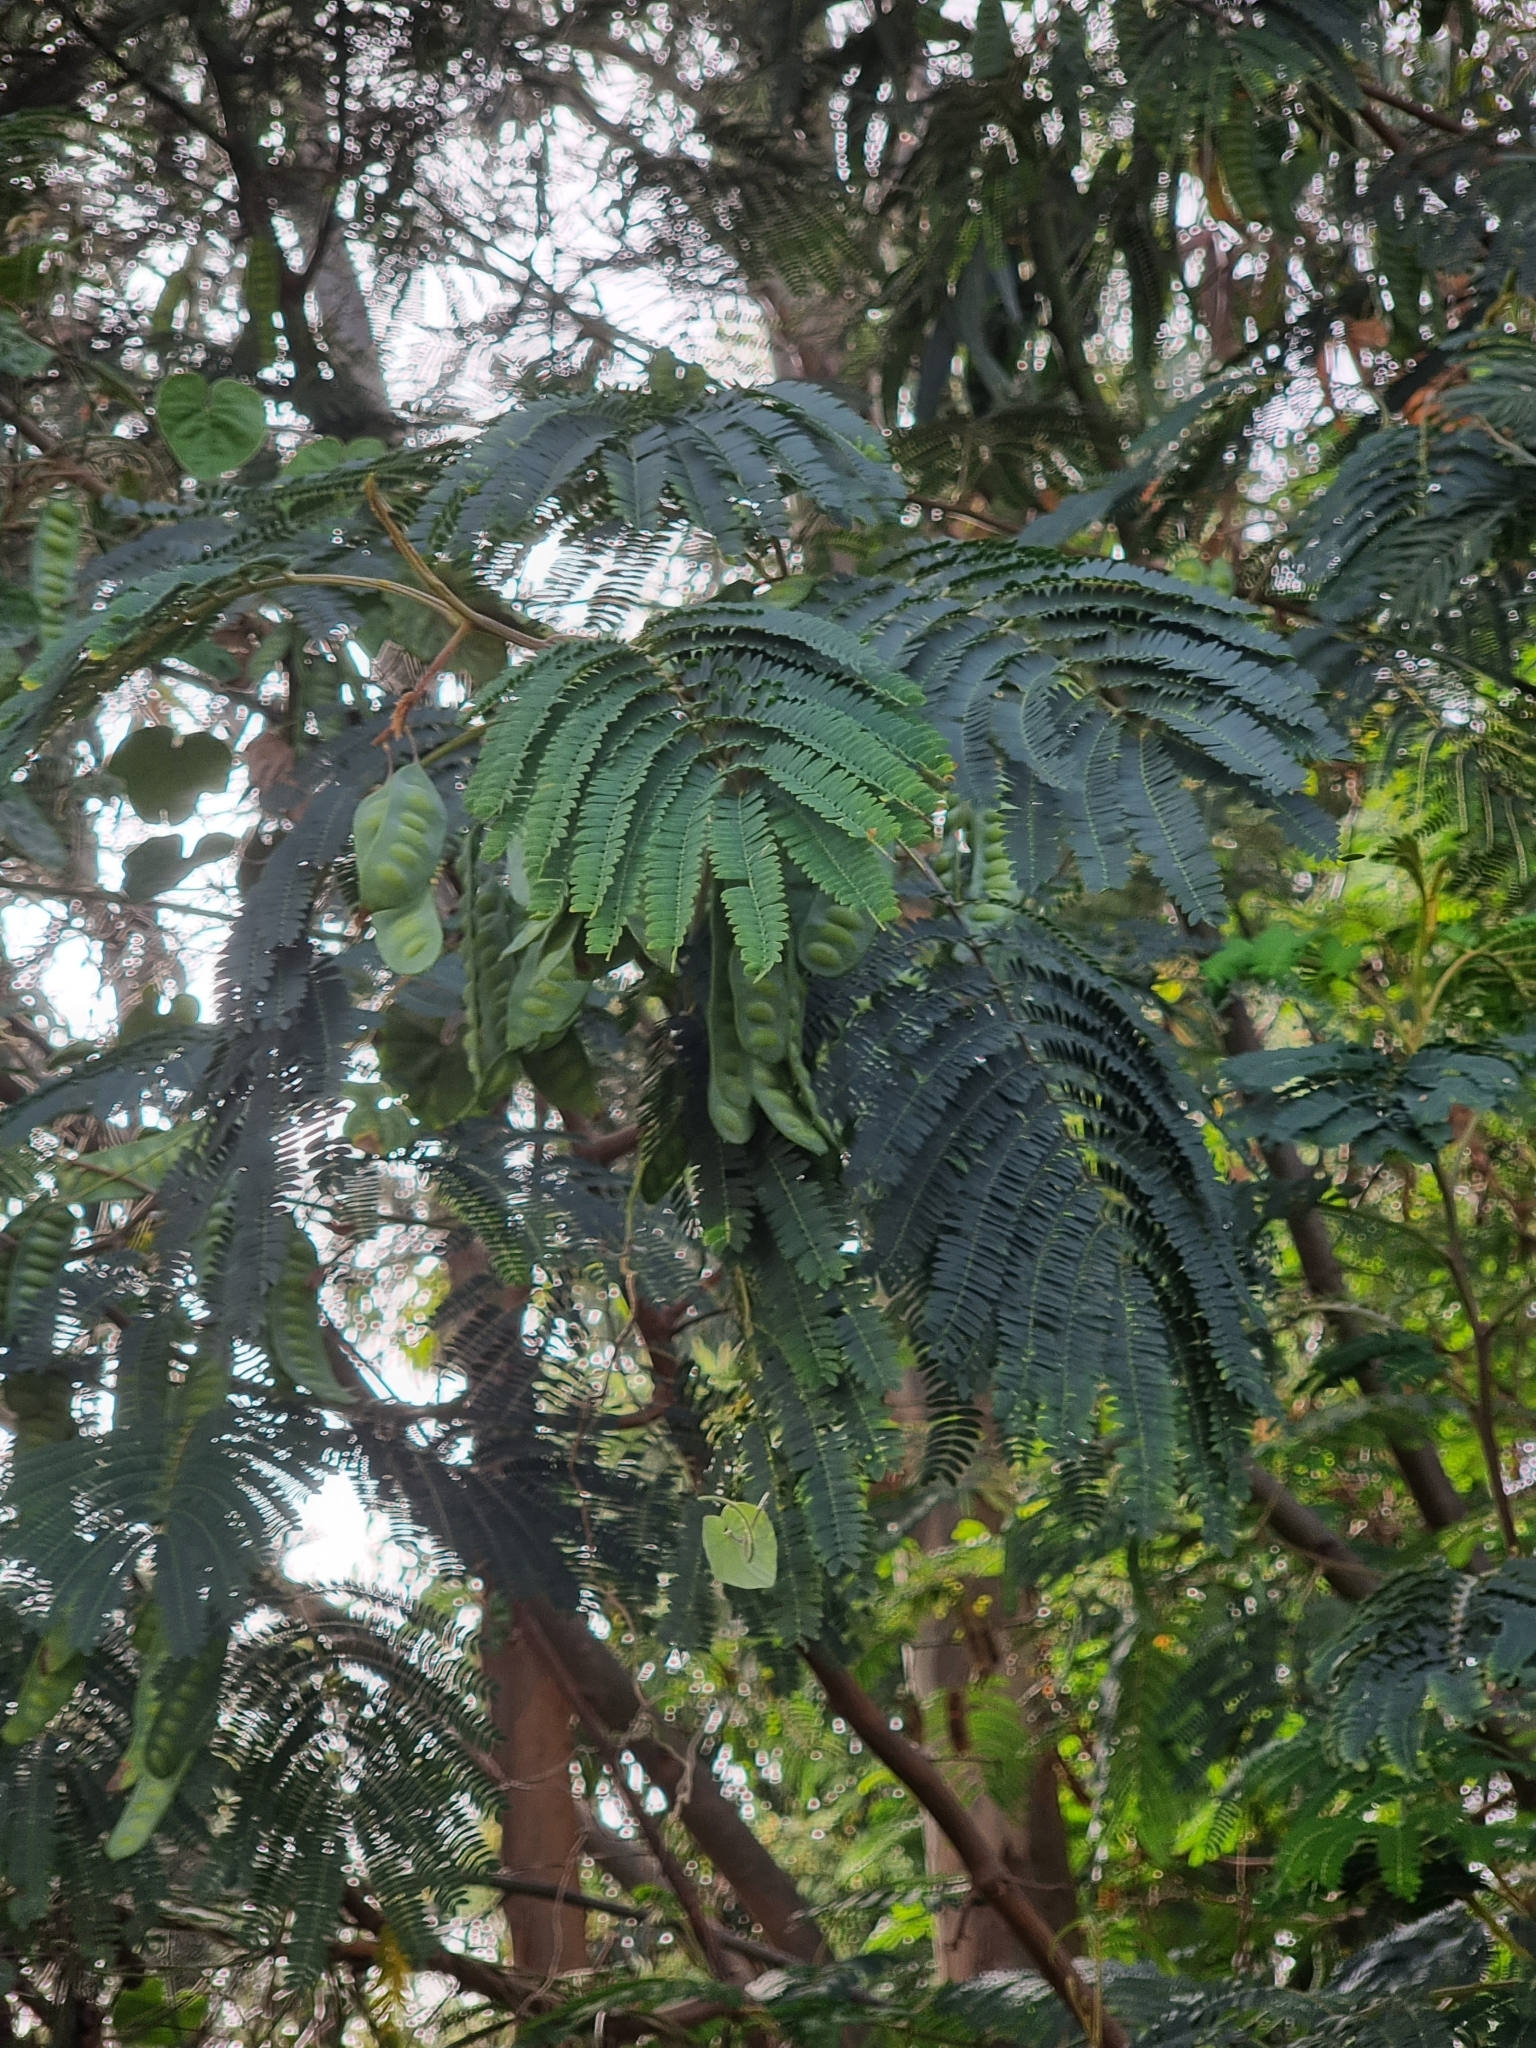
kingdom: Plantae
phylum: Tracheophyta
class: Magnoliopsida
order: Fabales
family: Fabaceae
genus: Paraserianthes
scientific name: Paraserianthes lophantha
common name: Plume albizia
